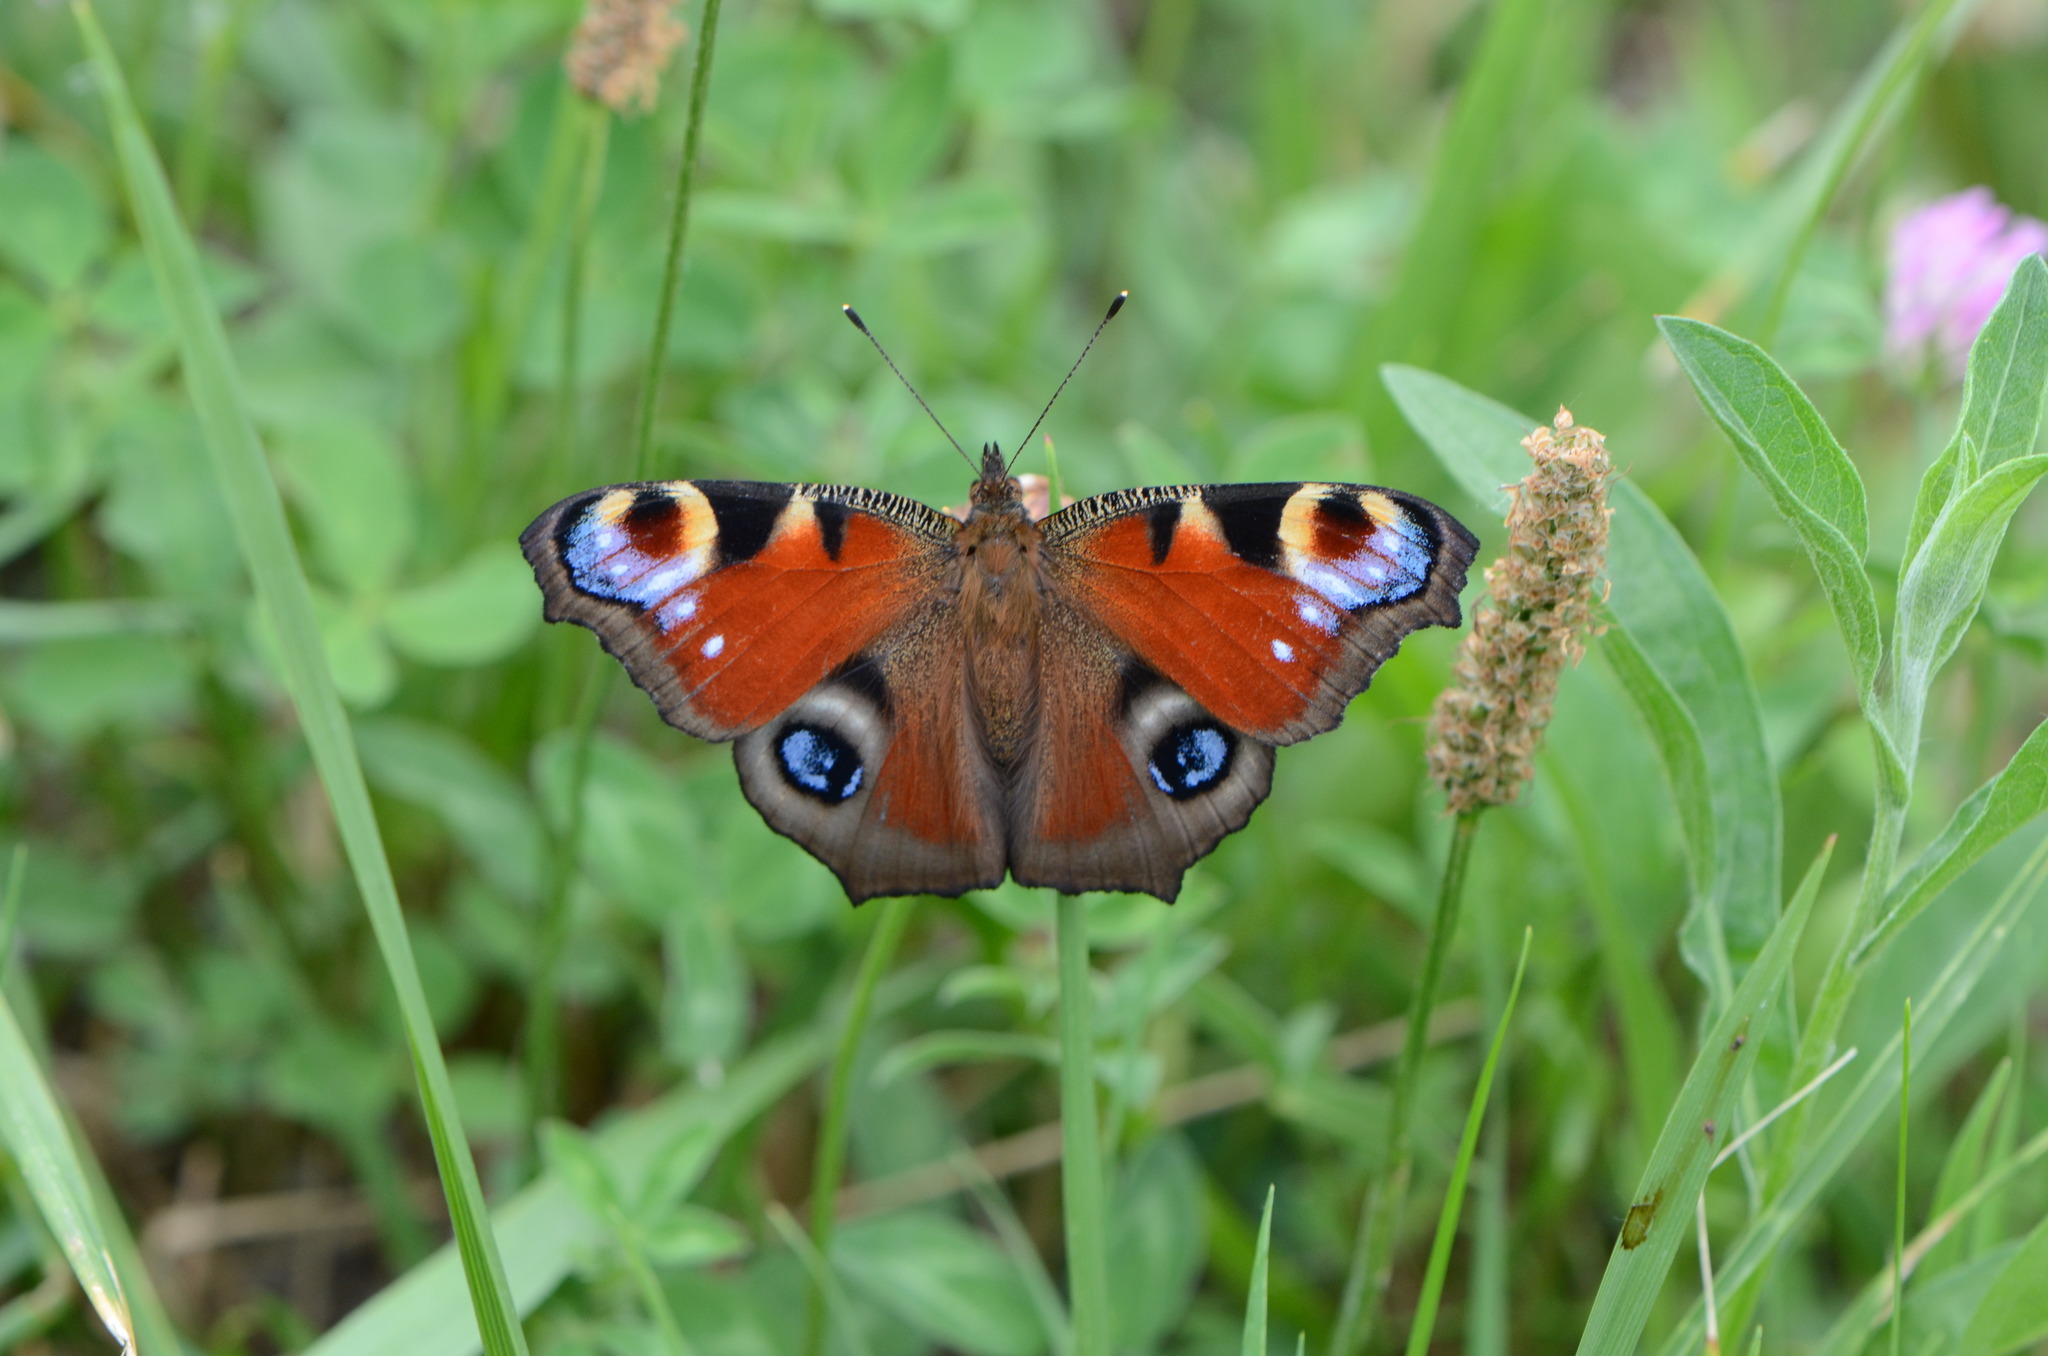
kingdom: Animalia
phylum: Arthropoda
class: Insecta
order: Lepidoptera
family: Nymphalidae
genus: Aglais
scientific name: Aglais io
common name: Peacock
